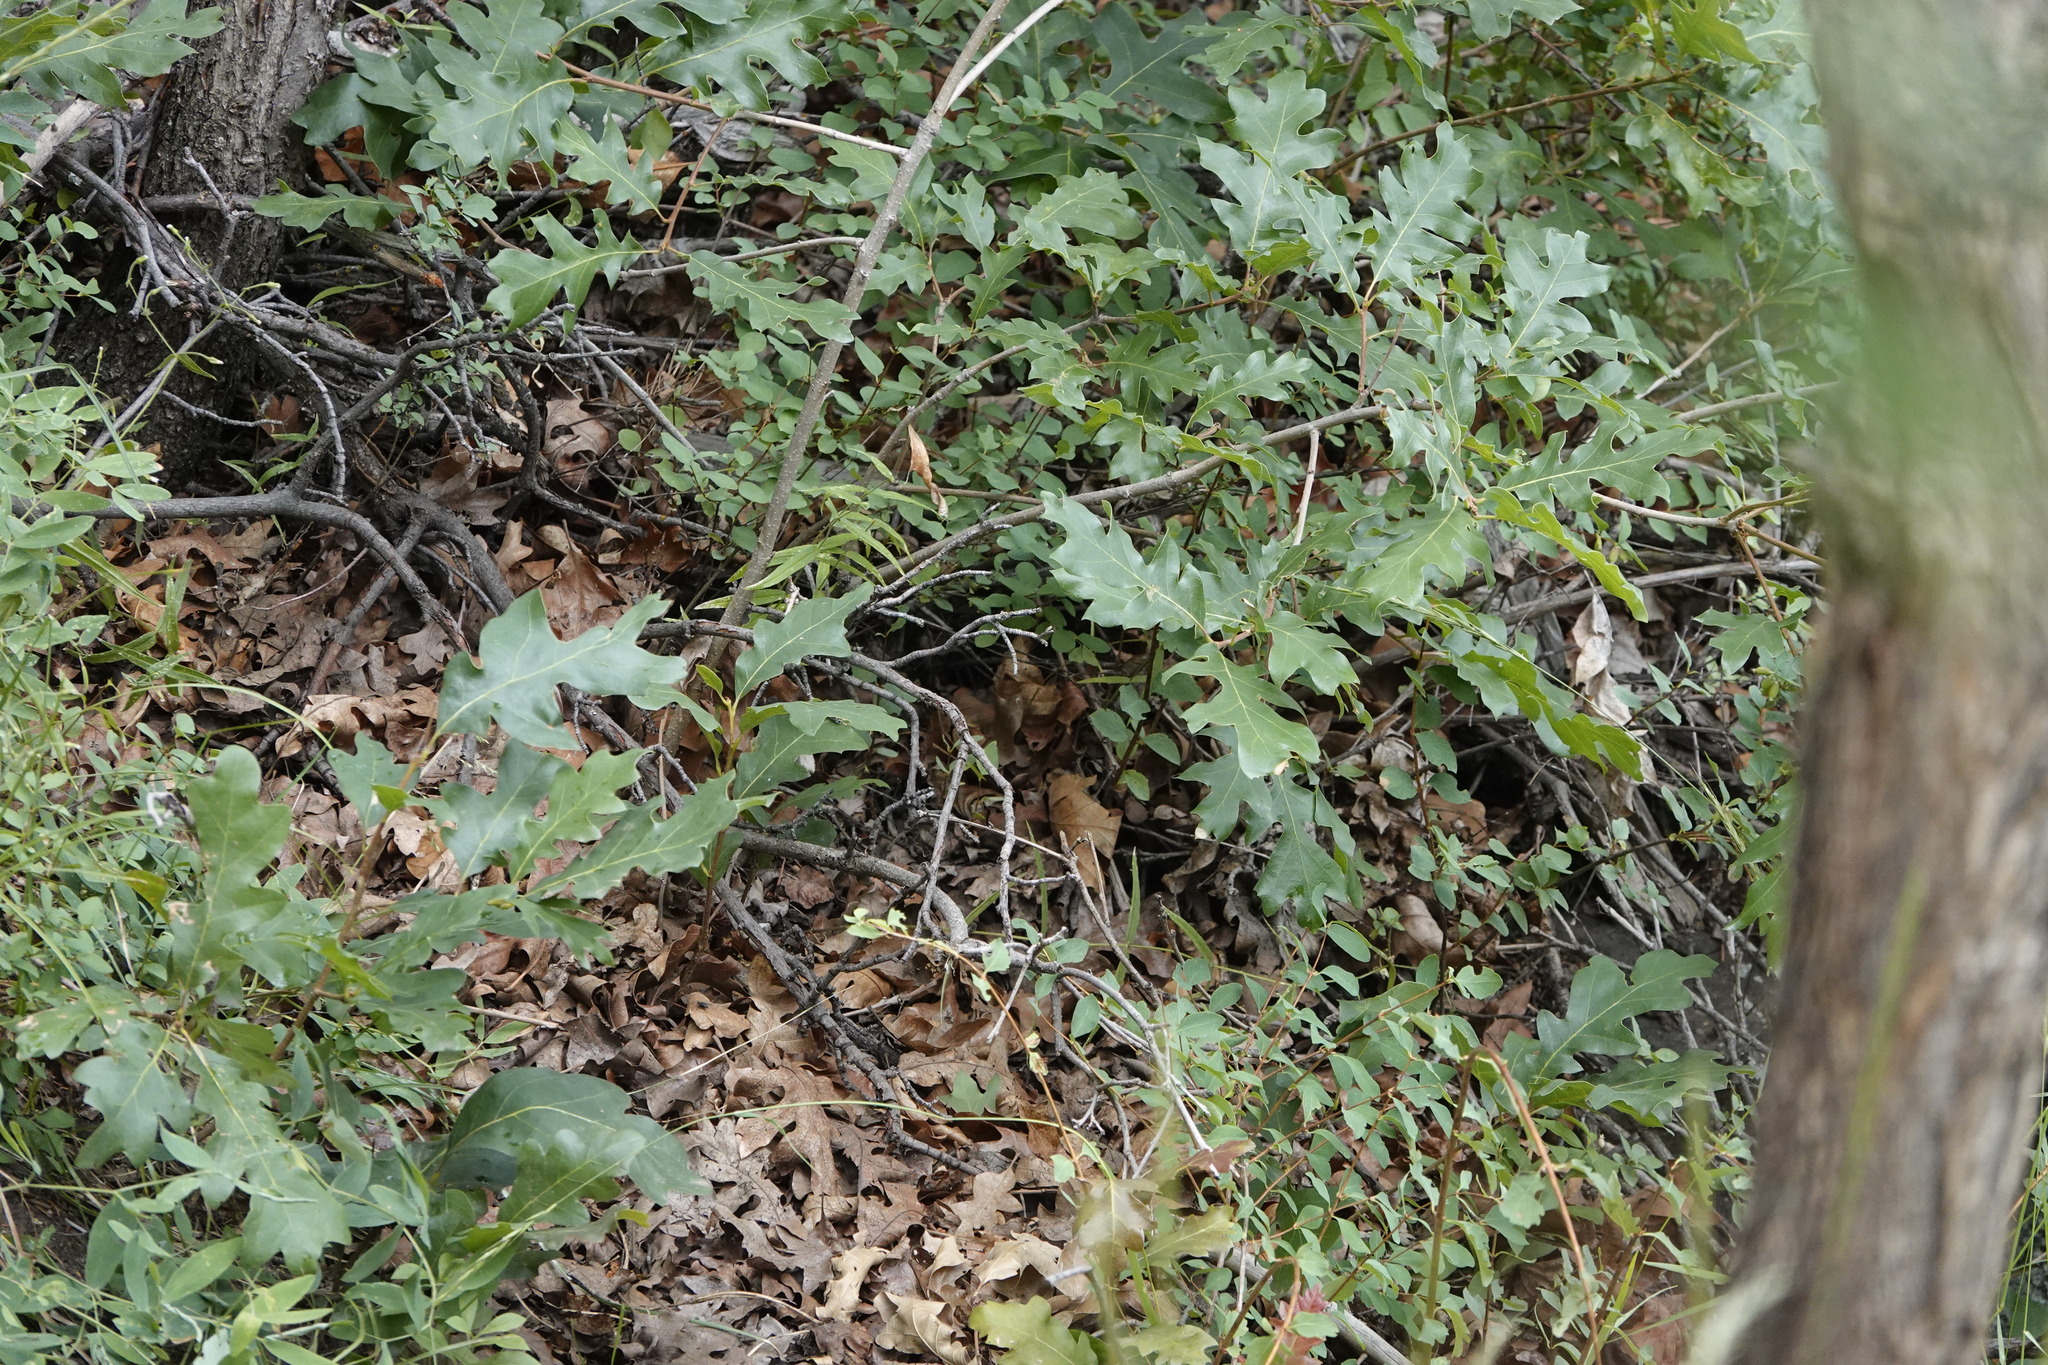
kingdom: Plantae
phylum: Tracheophyta
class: Magnoliopsida
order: Fagales
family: Fagaceae
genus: Quercus
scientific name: Quercus gambelii
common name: Gambel oak
